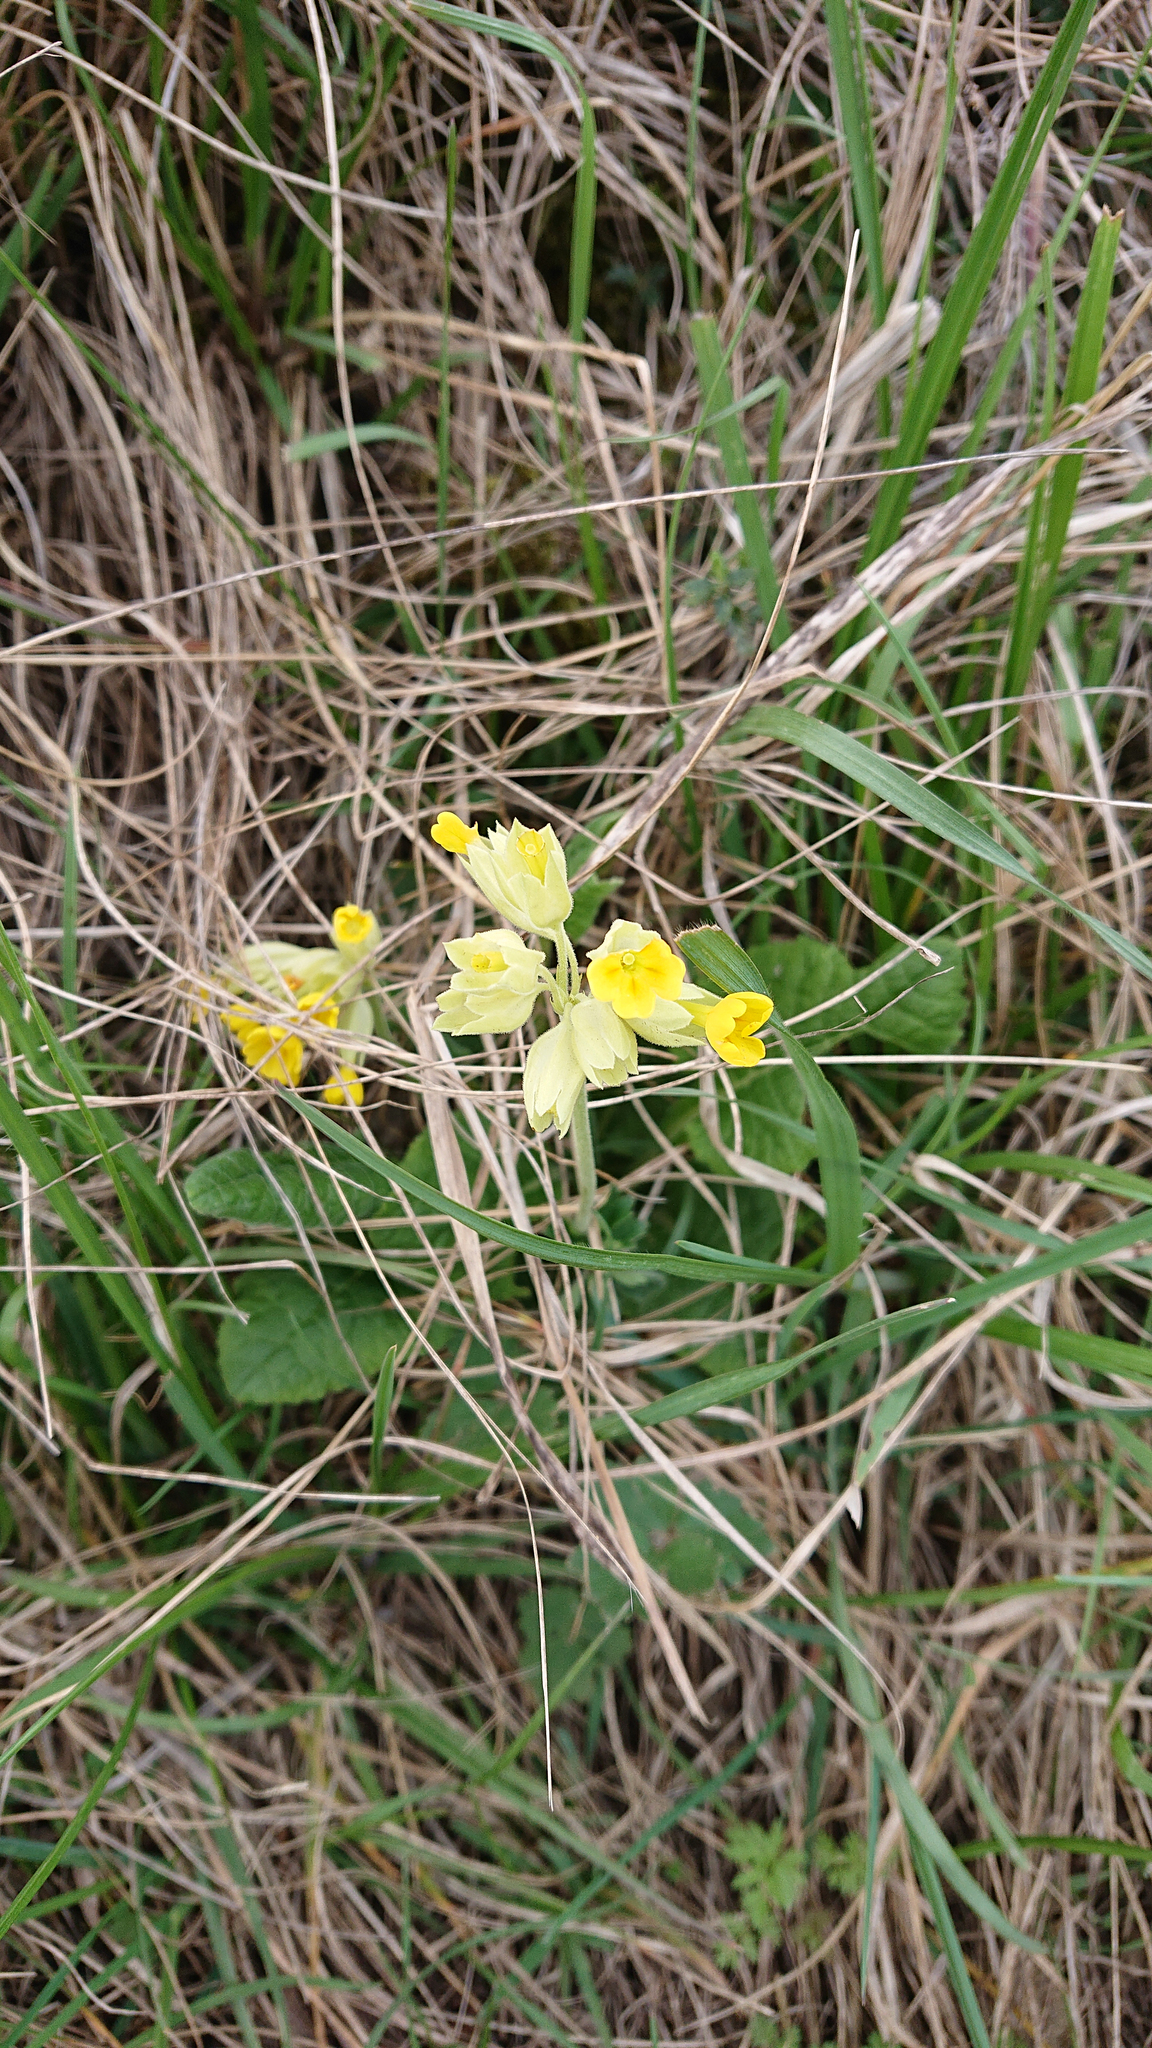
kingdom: Plantae
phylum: Tracheophyta
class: Magnoliopsida
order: Ericales
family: Primulaceae
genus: Primula
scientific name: Primula veris
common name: Cowslip
